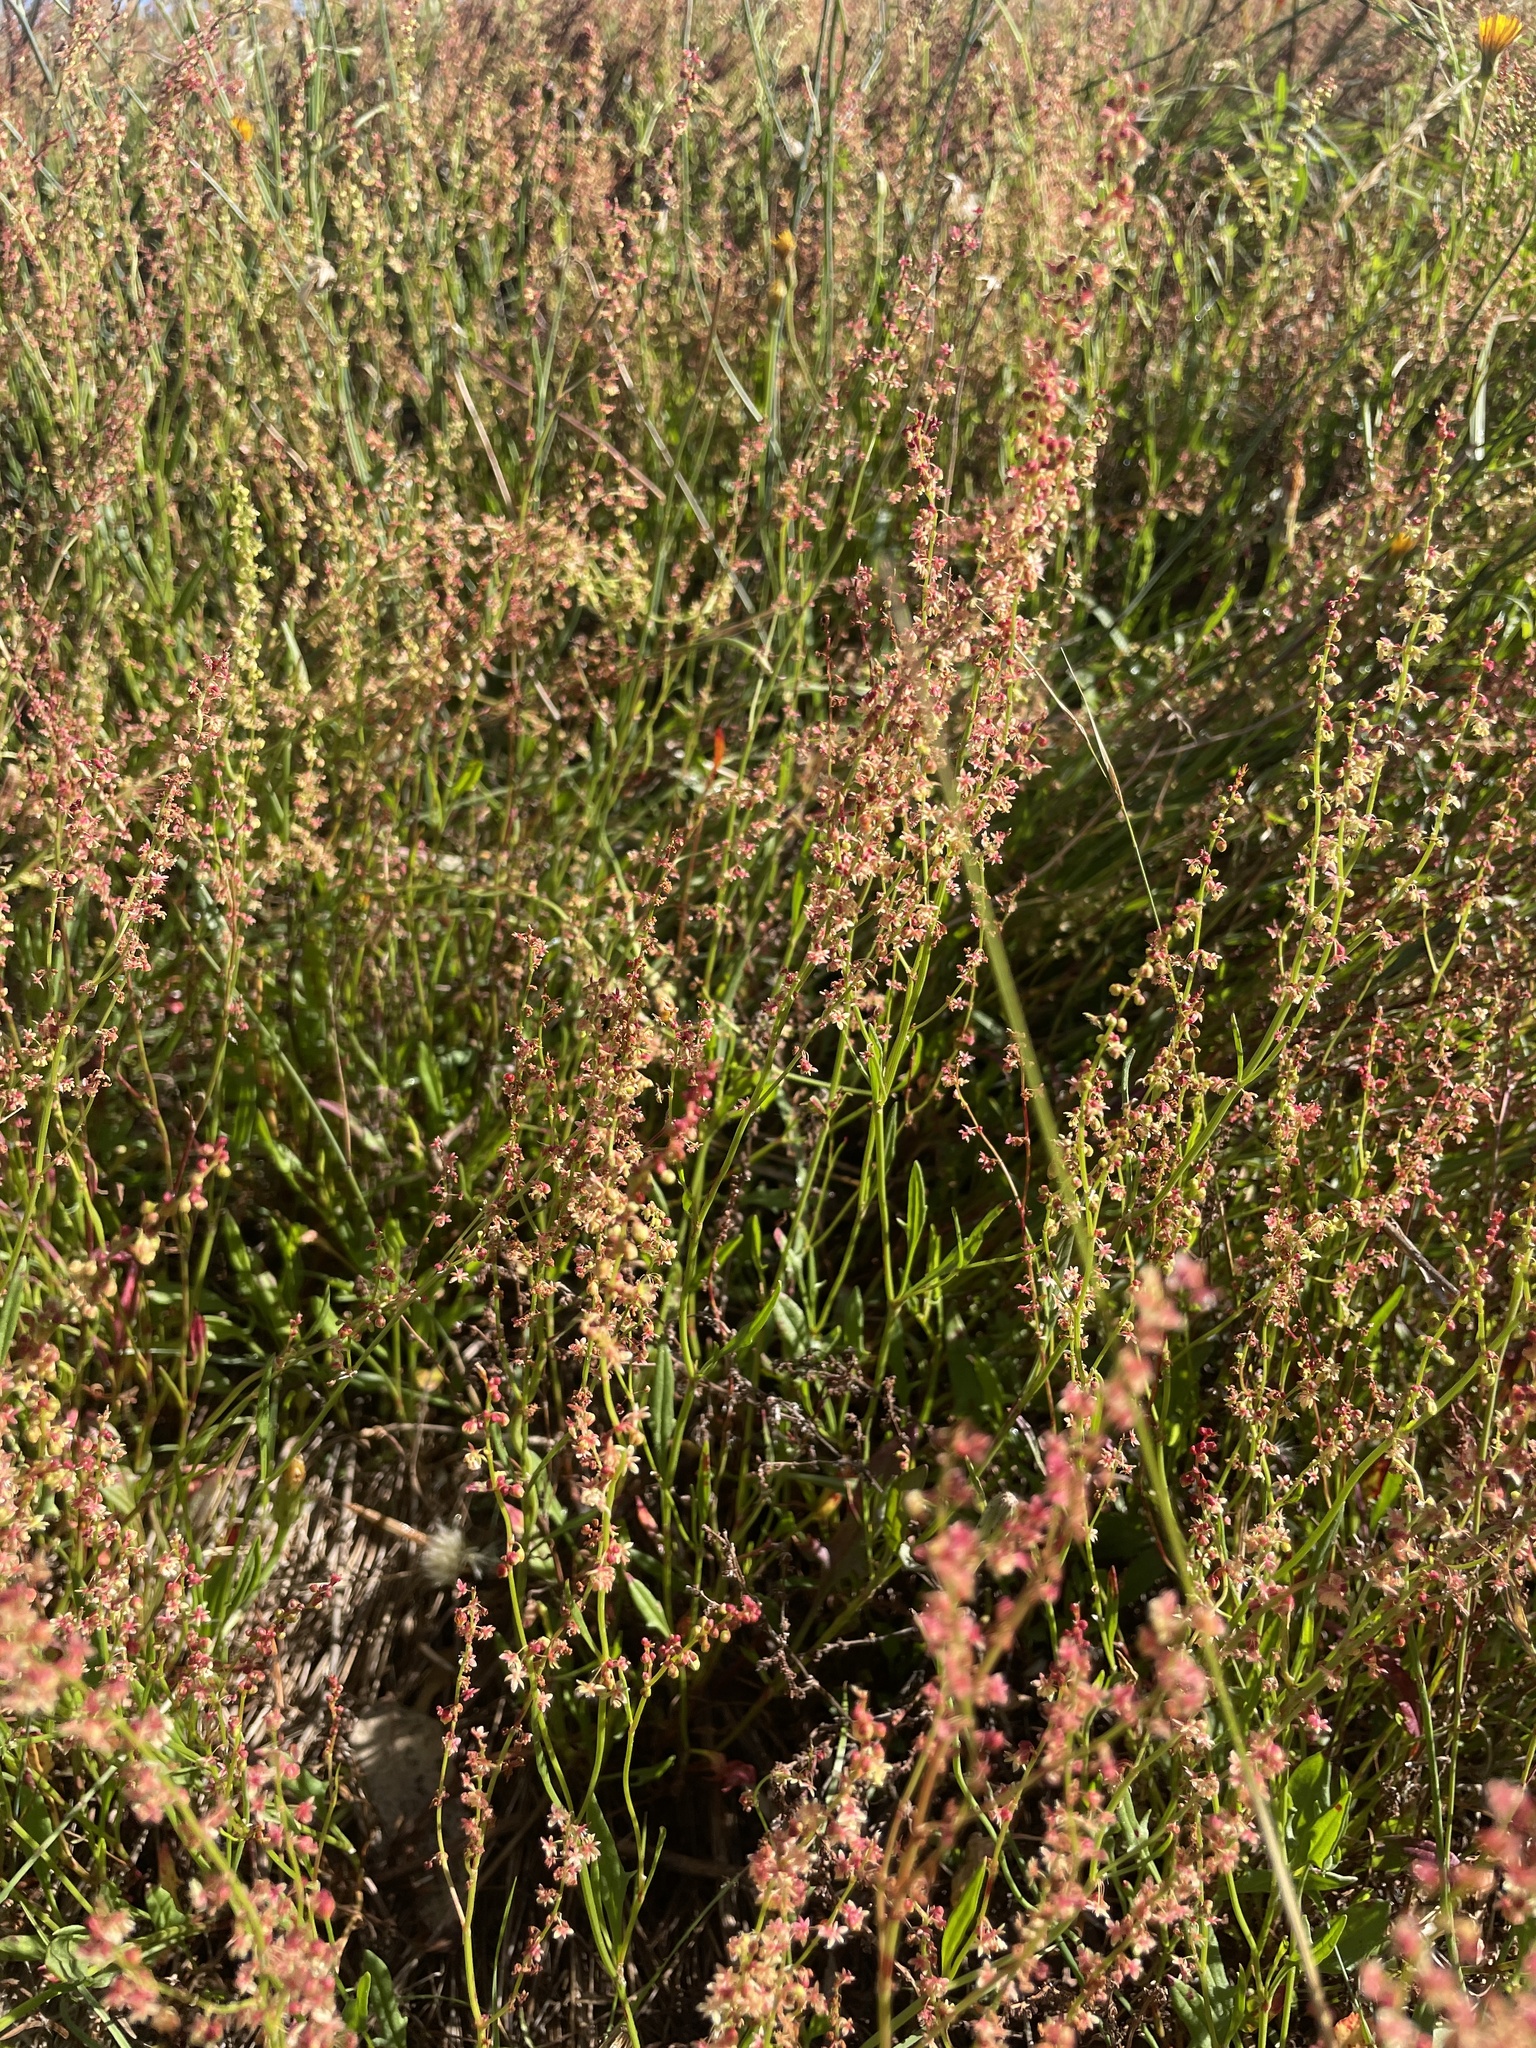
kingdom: Plantae
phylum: Tracheophyta
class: Magnoliopsida
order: Caryophyllales
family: Polygonaceae
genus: Rumex
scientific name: Rumex acetosella
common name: Common sheep sorrel
